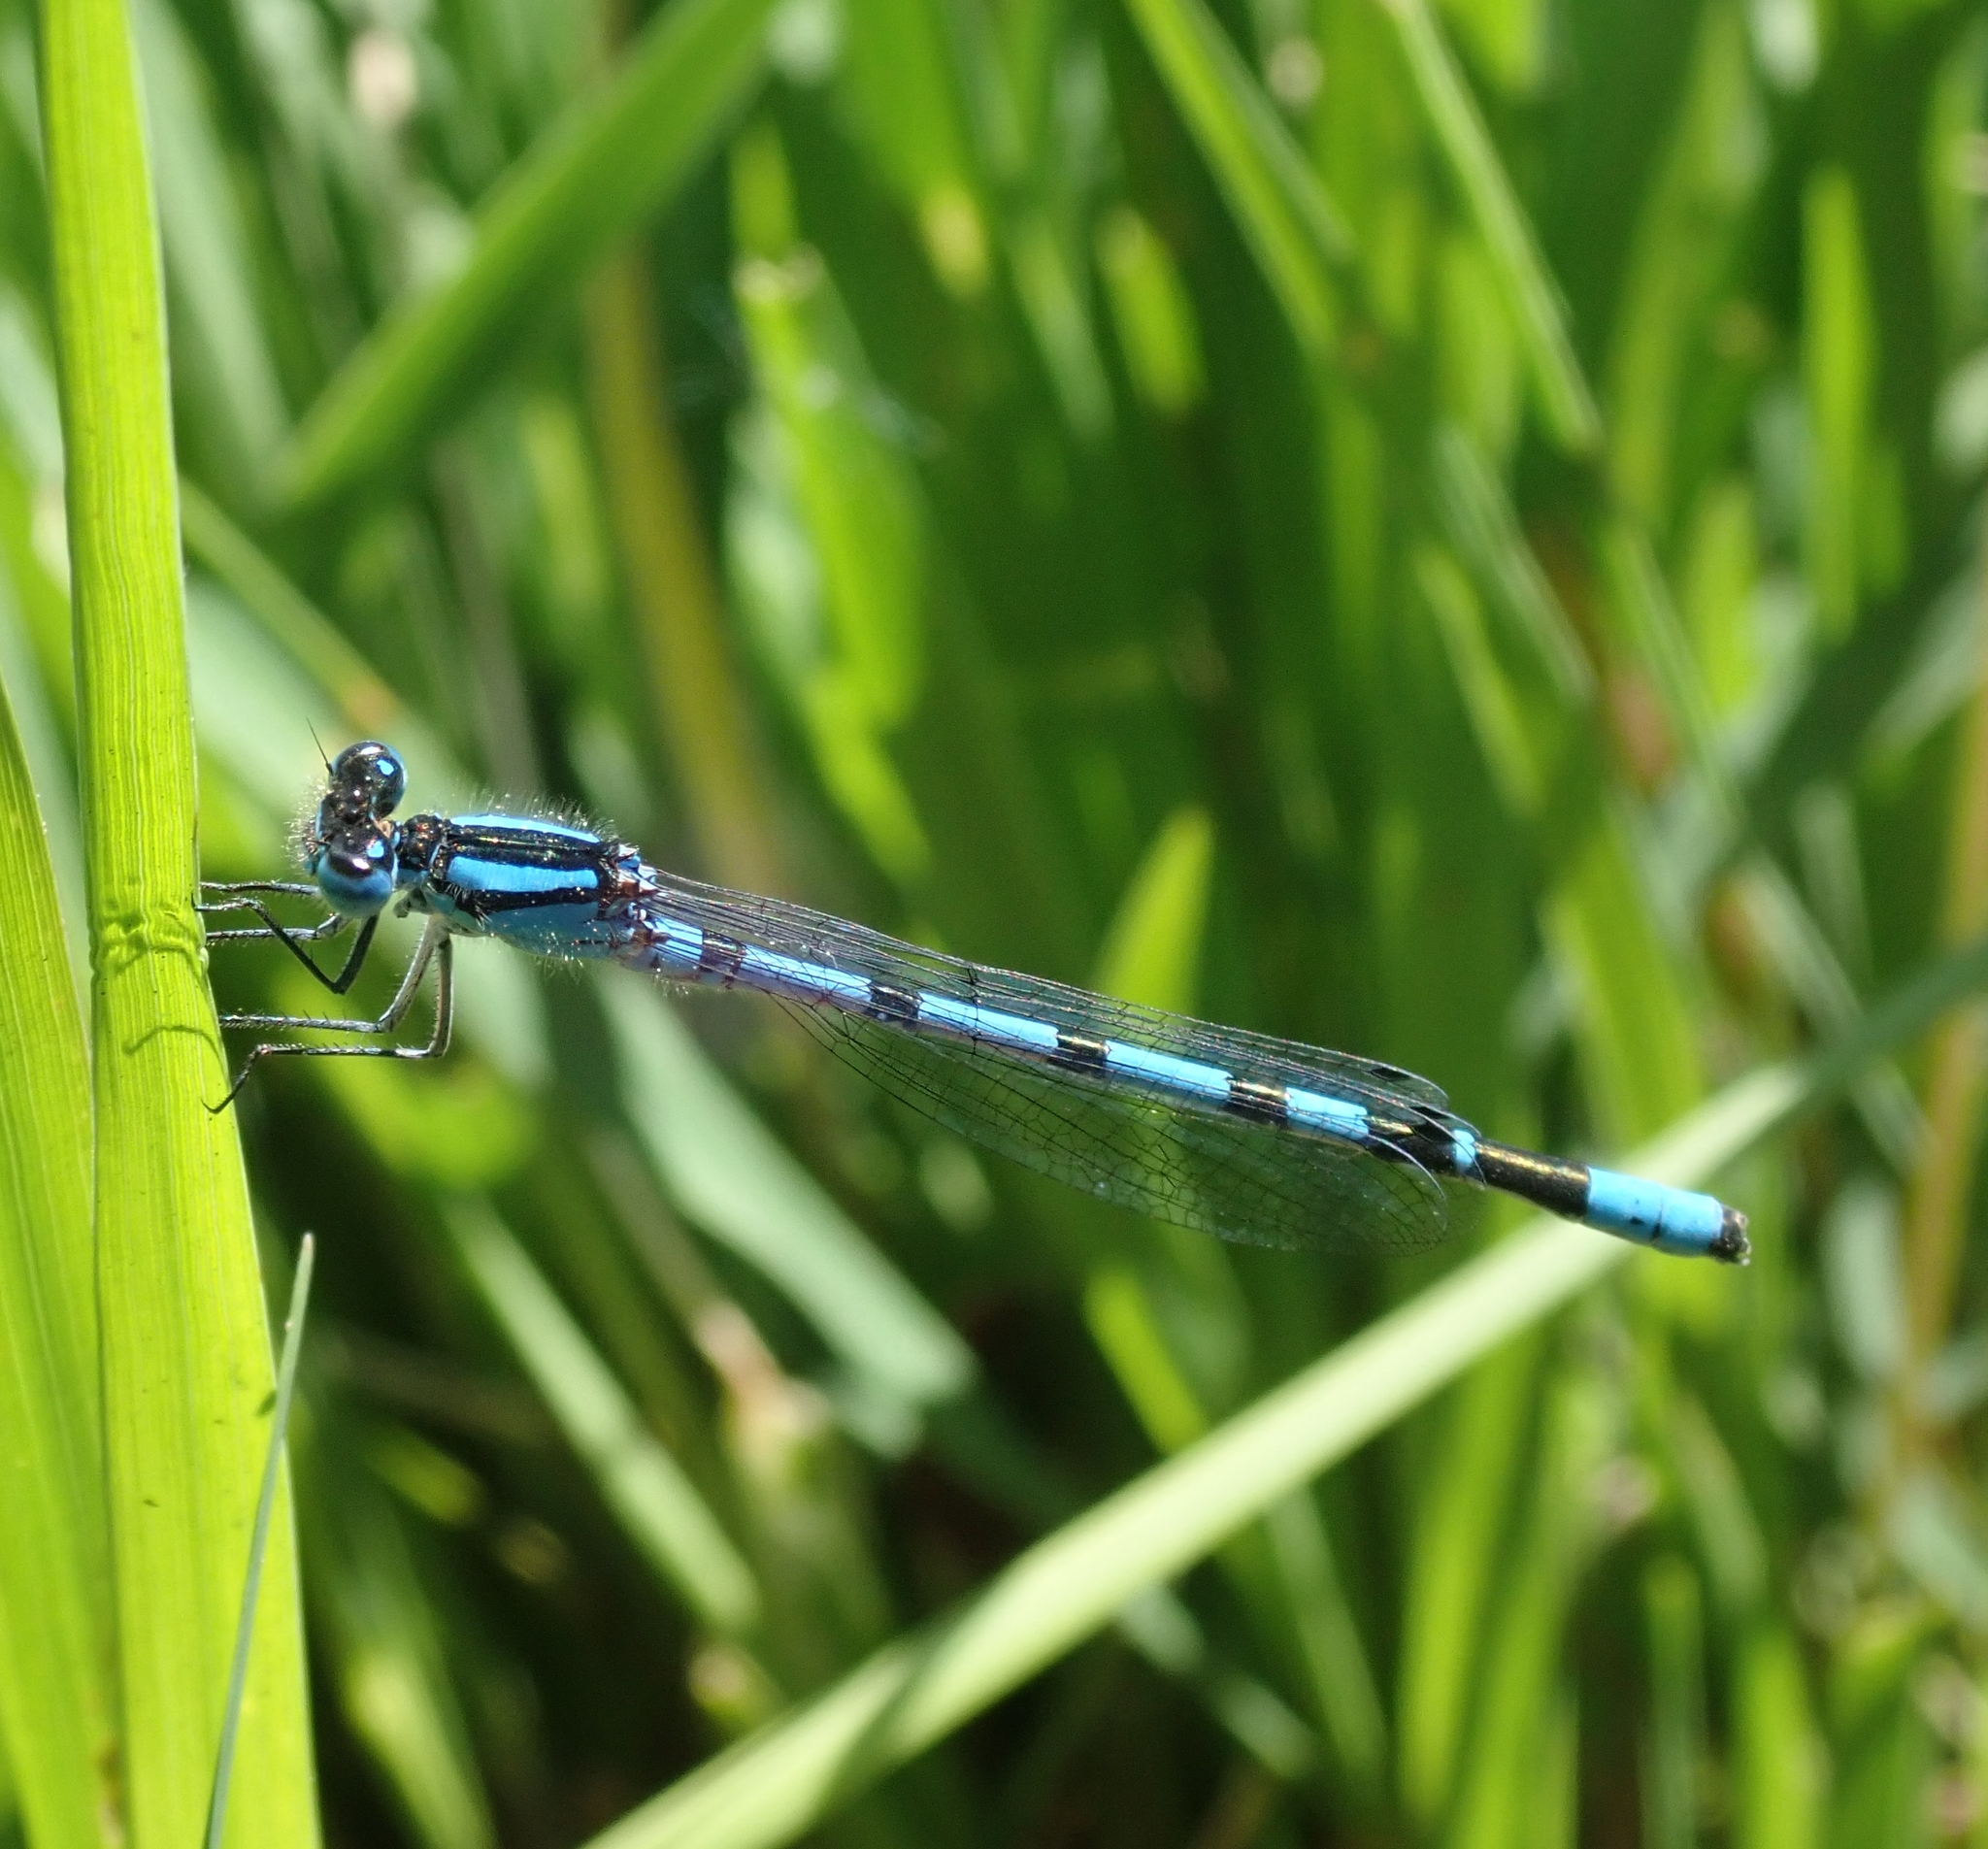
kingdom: Animalia
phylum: Arthropoda
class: Insecta
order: Odonata
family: Coenagrionidae
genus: Enallagma
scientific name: Enallagma cyathigerum
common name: Common blue damselfly
